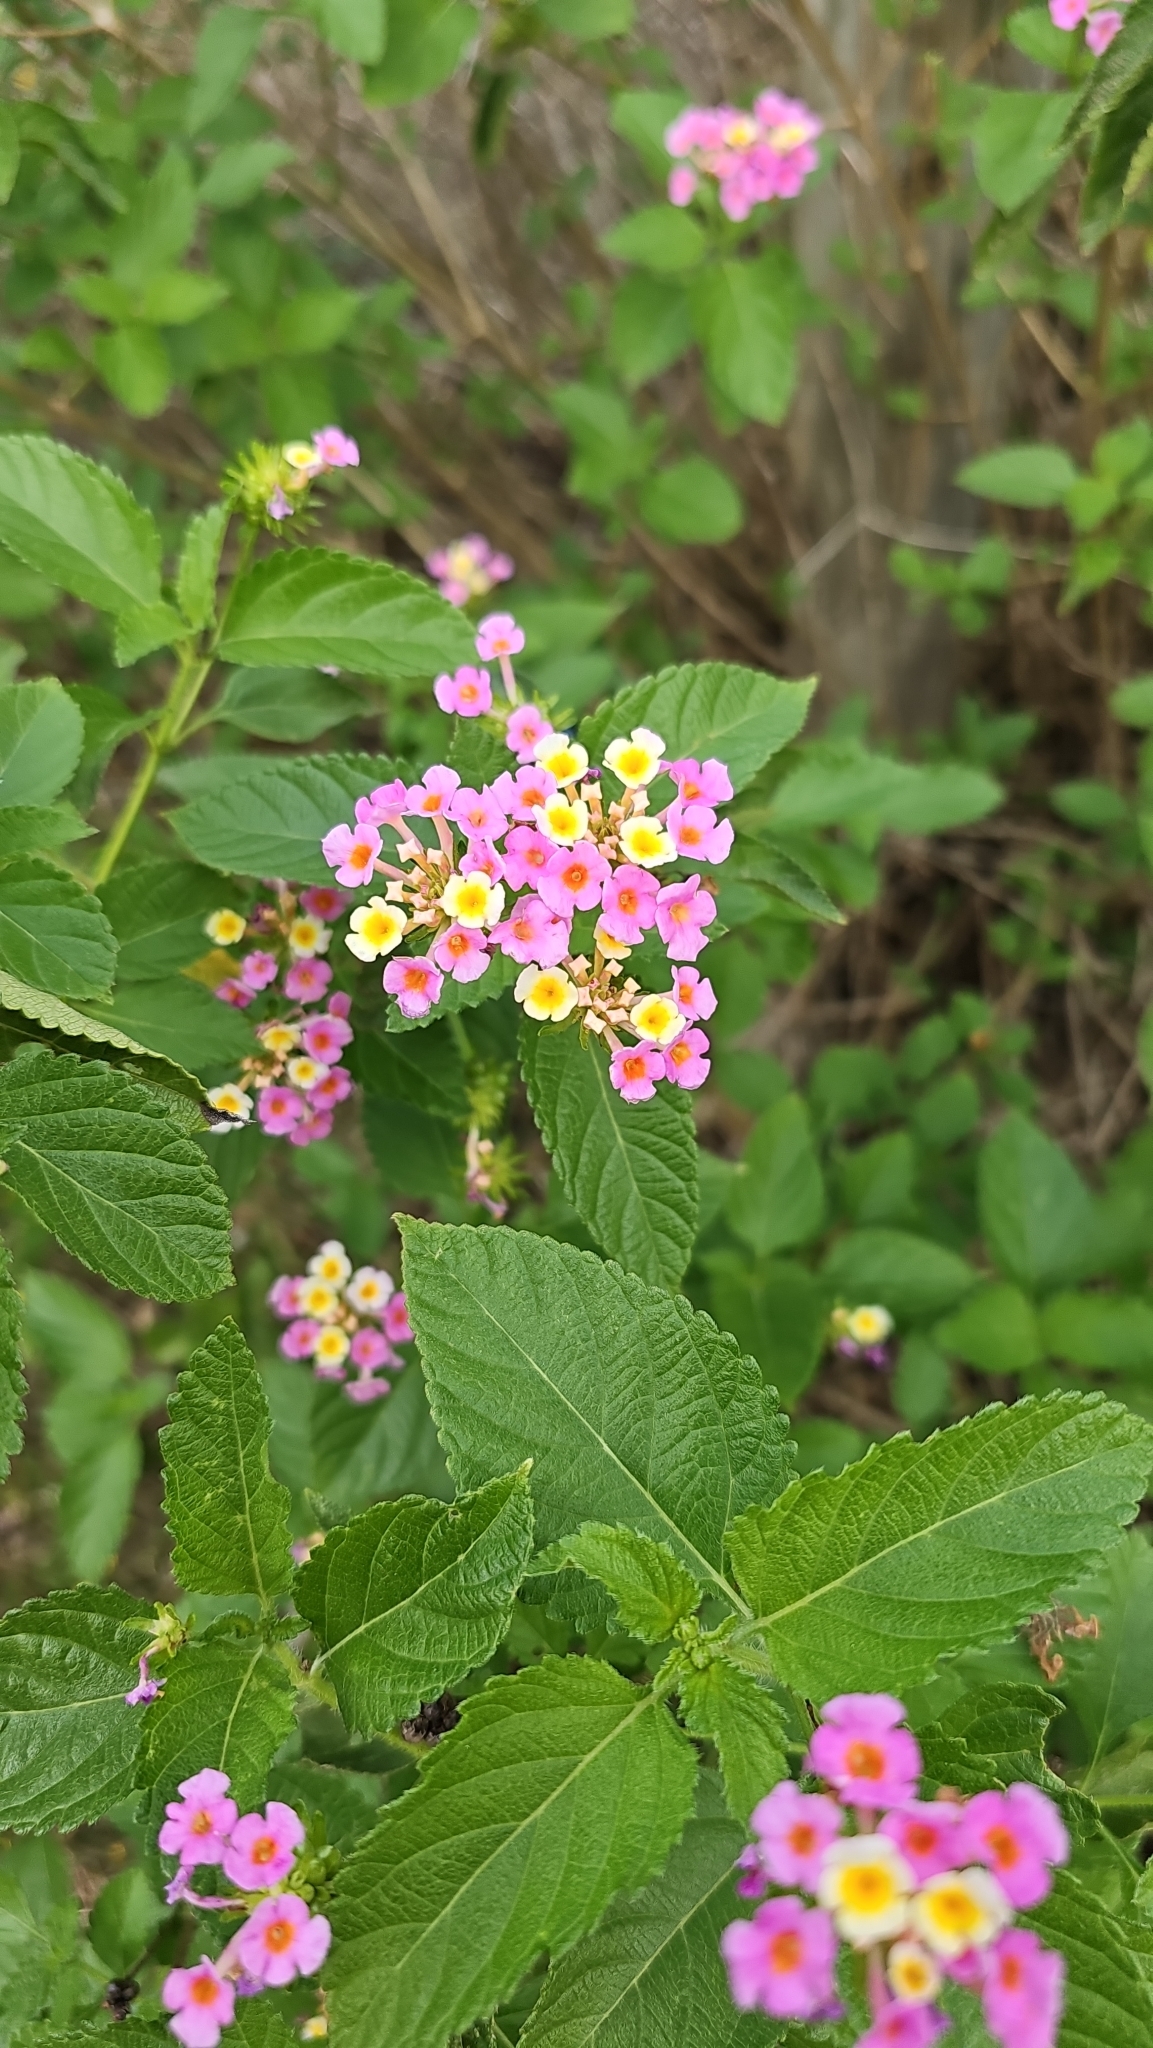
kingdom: Plantae
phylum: Tracheophyta
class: Magnoliopsida
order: Lamiales
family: Verbenaceae
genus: Lantana
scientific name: Lantana strigocamara
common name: Lantana
